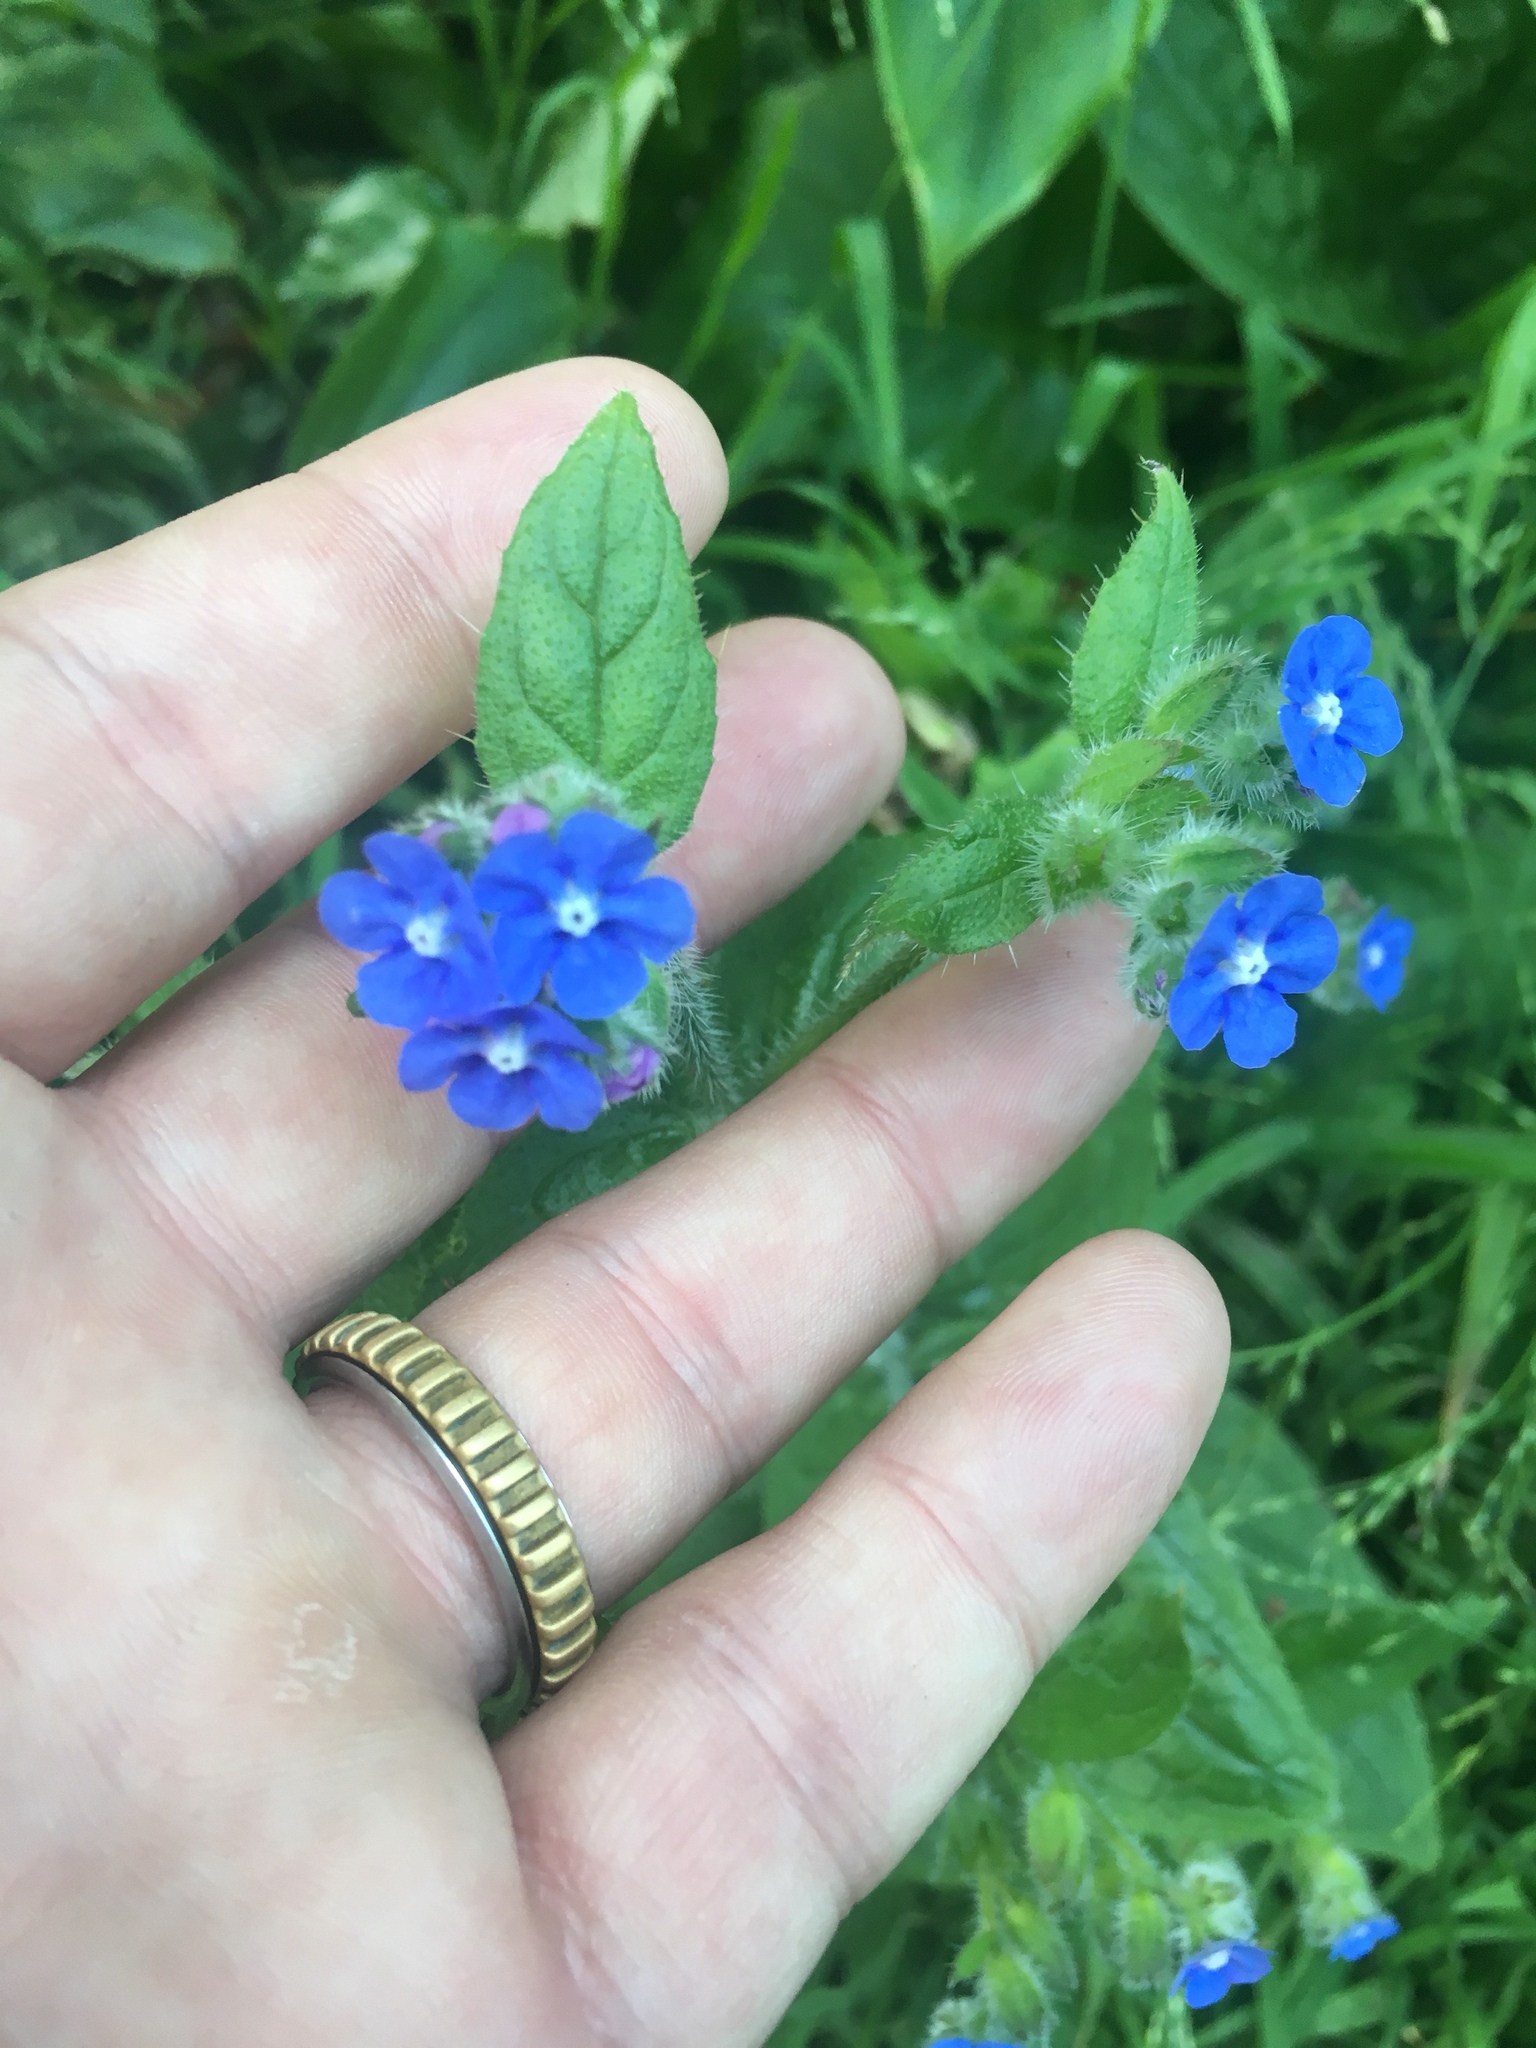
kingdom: Plantae
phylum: Tracheophyta
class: Magnoliopsida
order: Boraginales
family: Boraginaceae
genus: Pentaglottis
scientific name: Pentaglottis sempervirens
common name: Green alkanet
